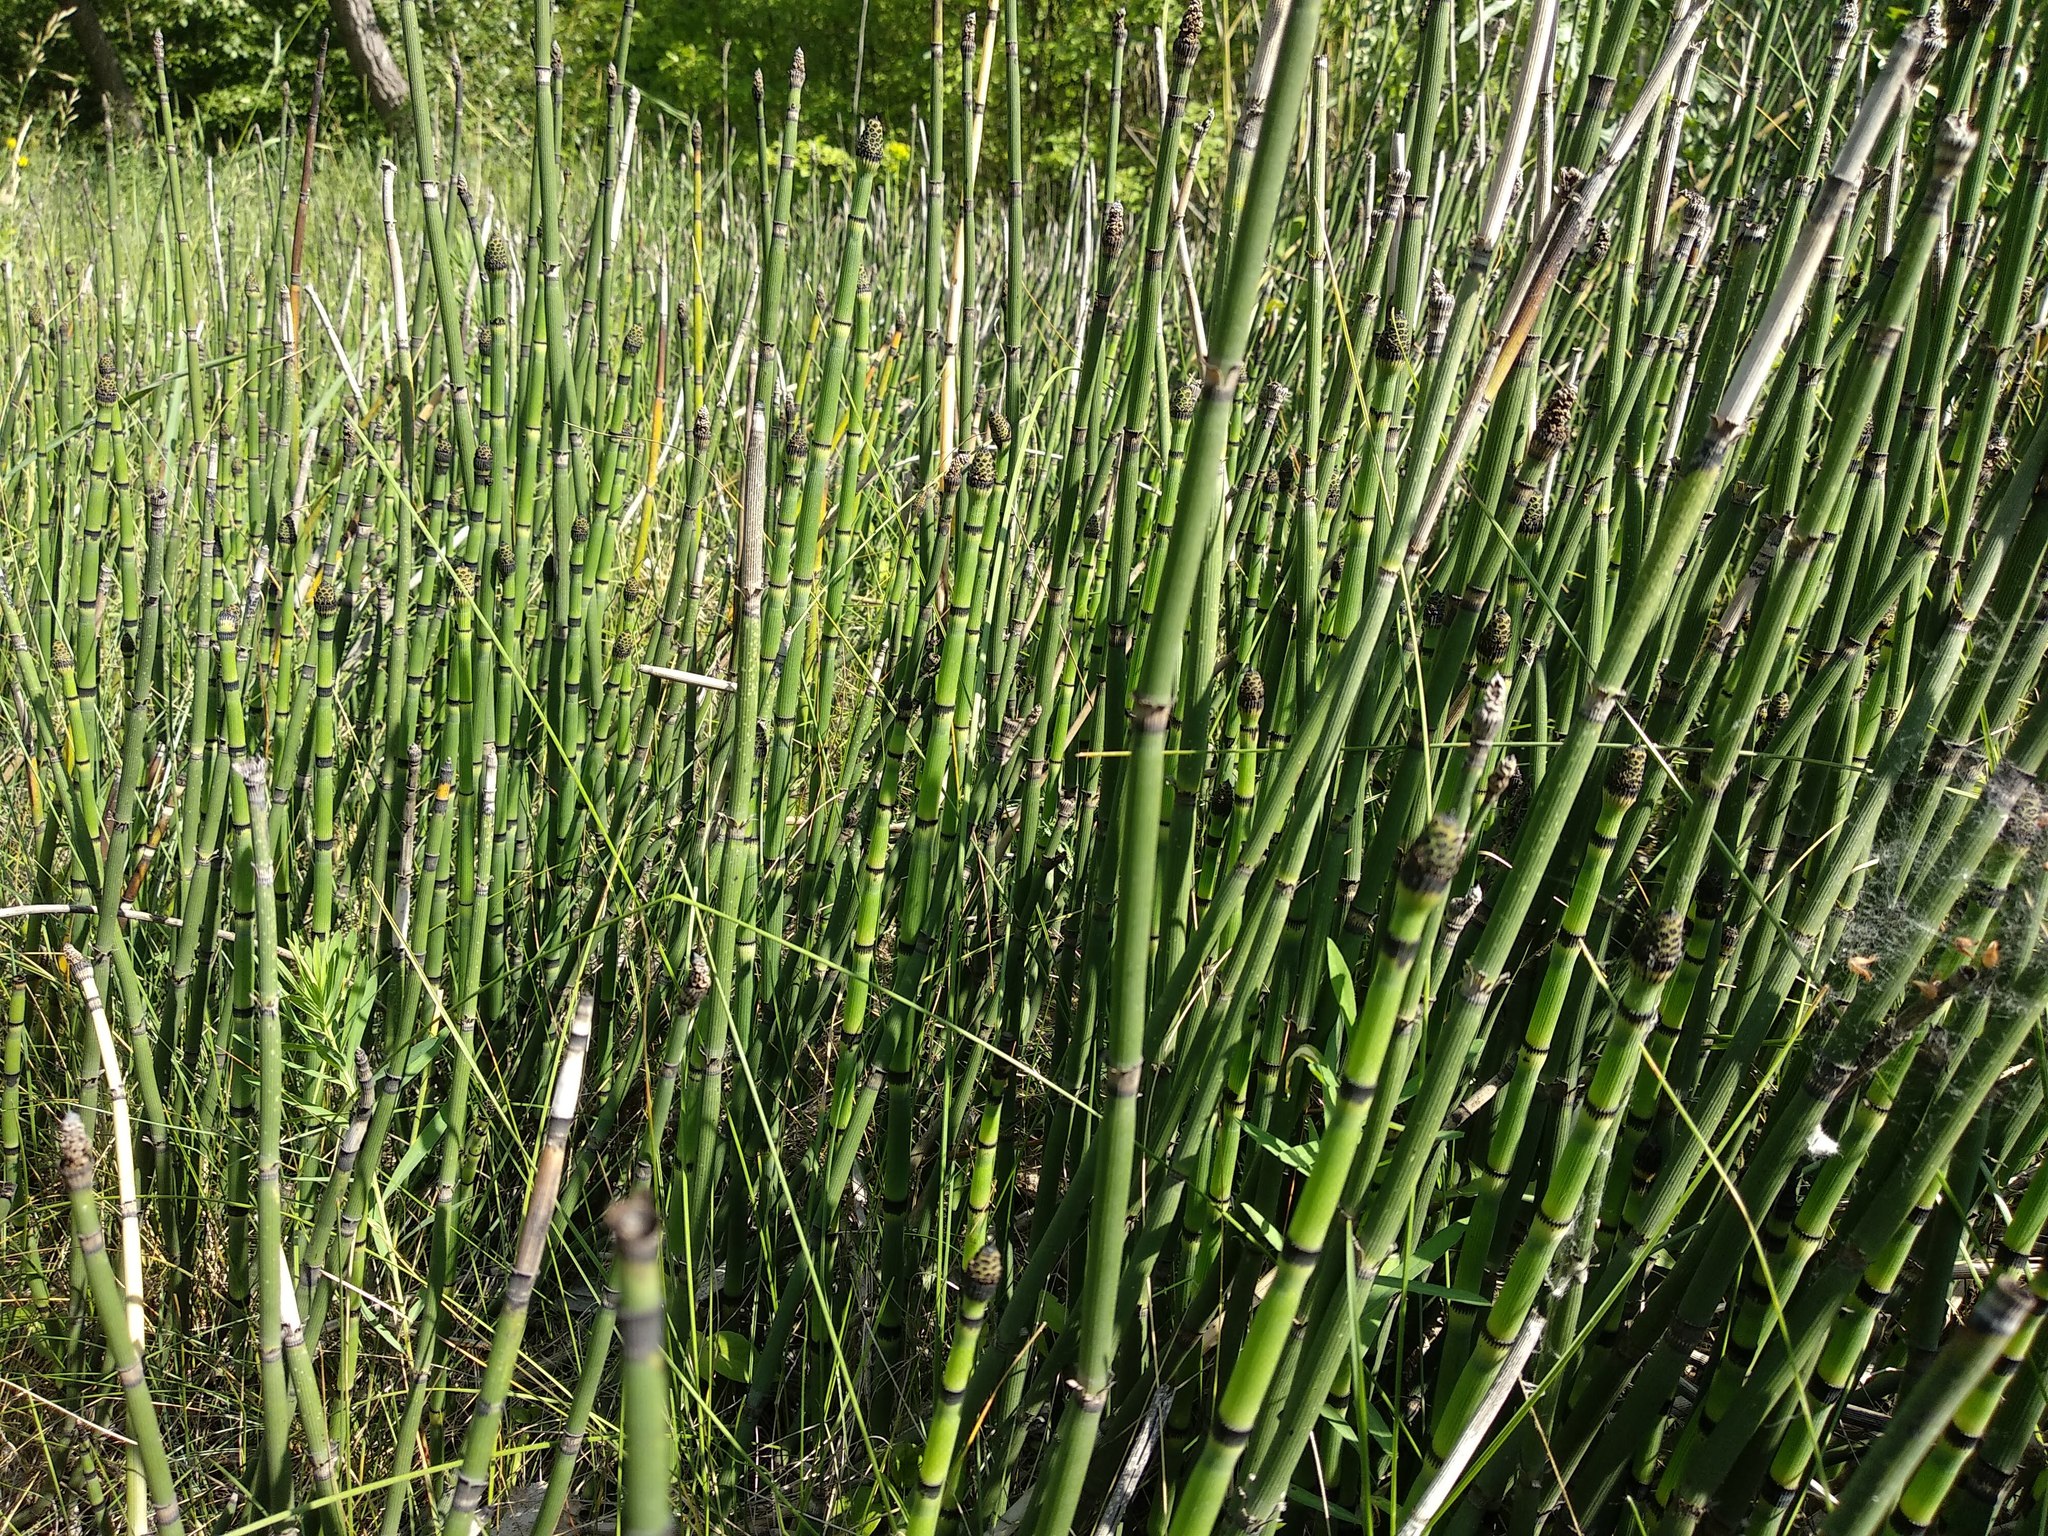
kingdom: Plantae
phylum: Tracheophyta
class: Polypodiopsida
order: Equisetales
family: Equisetaceae
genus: Equisetum
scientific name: Equisetum hyemale
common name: Rough horsetail
